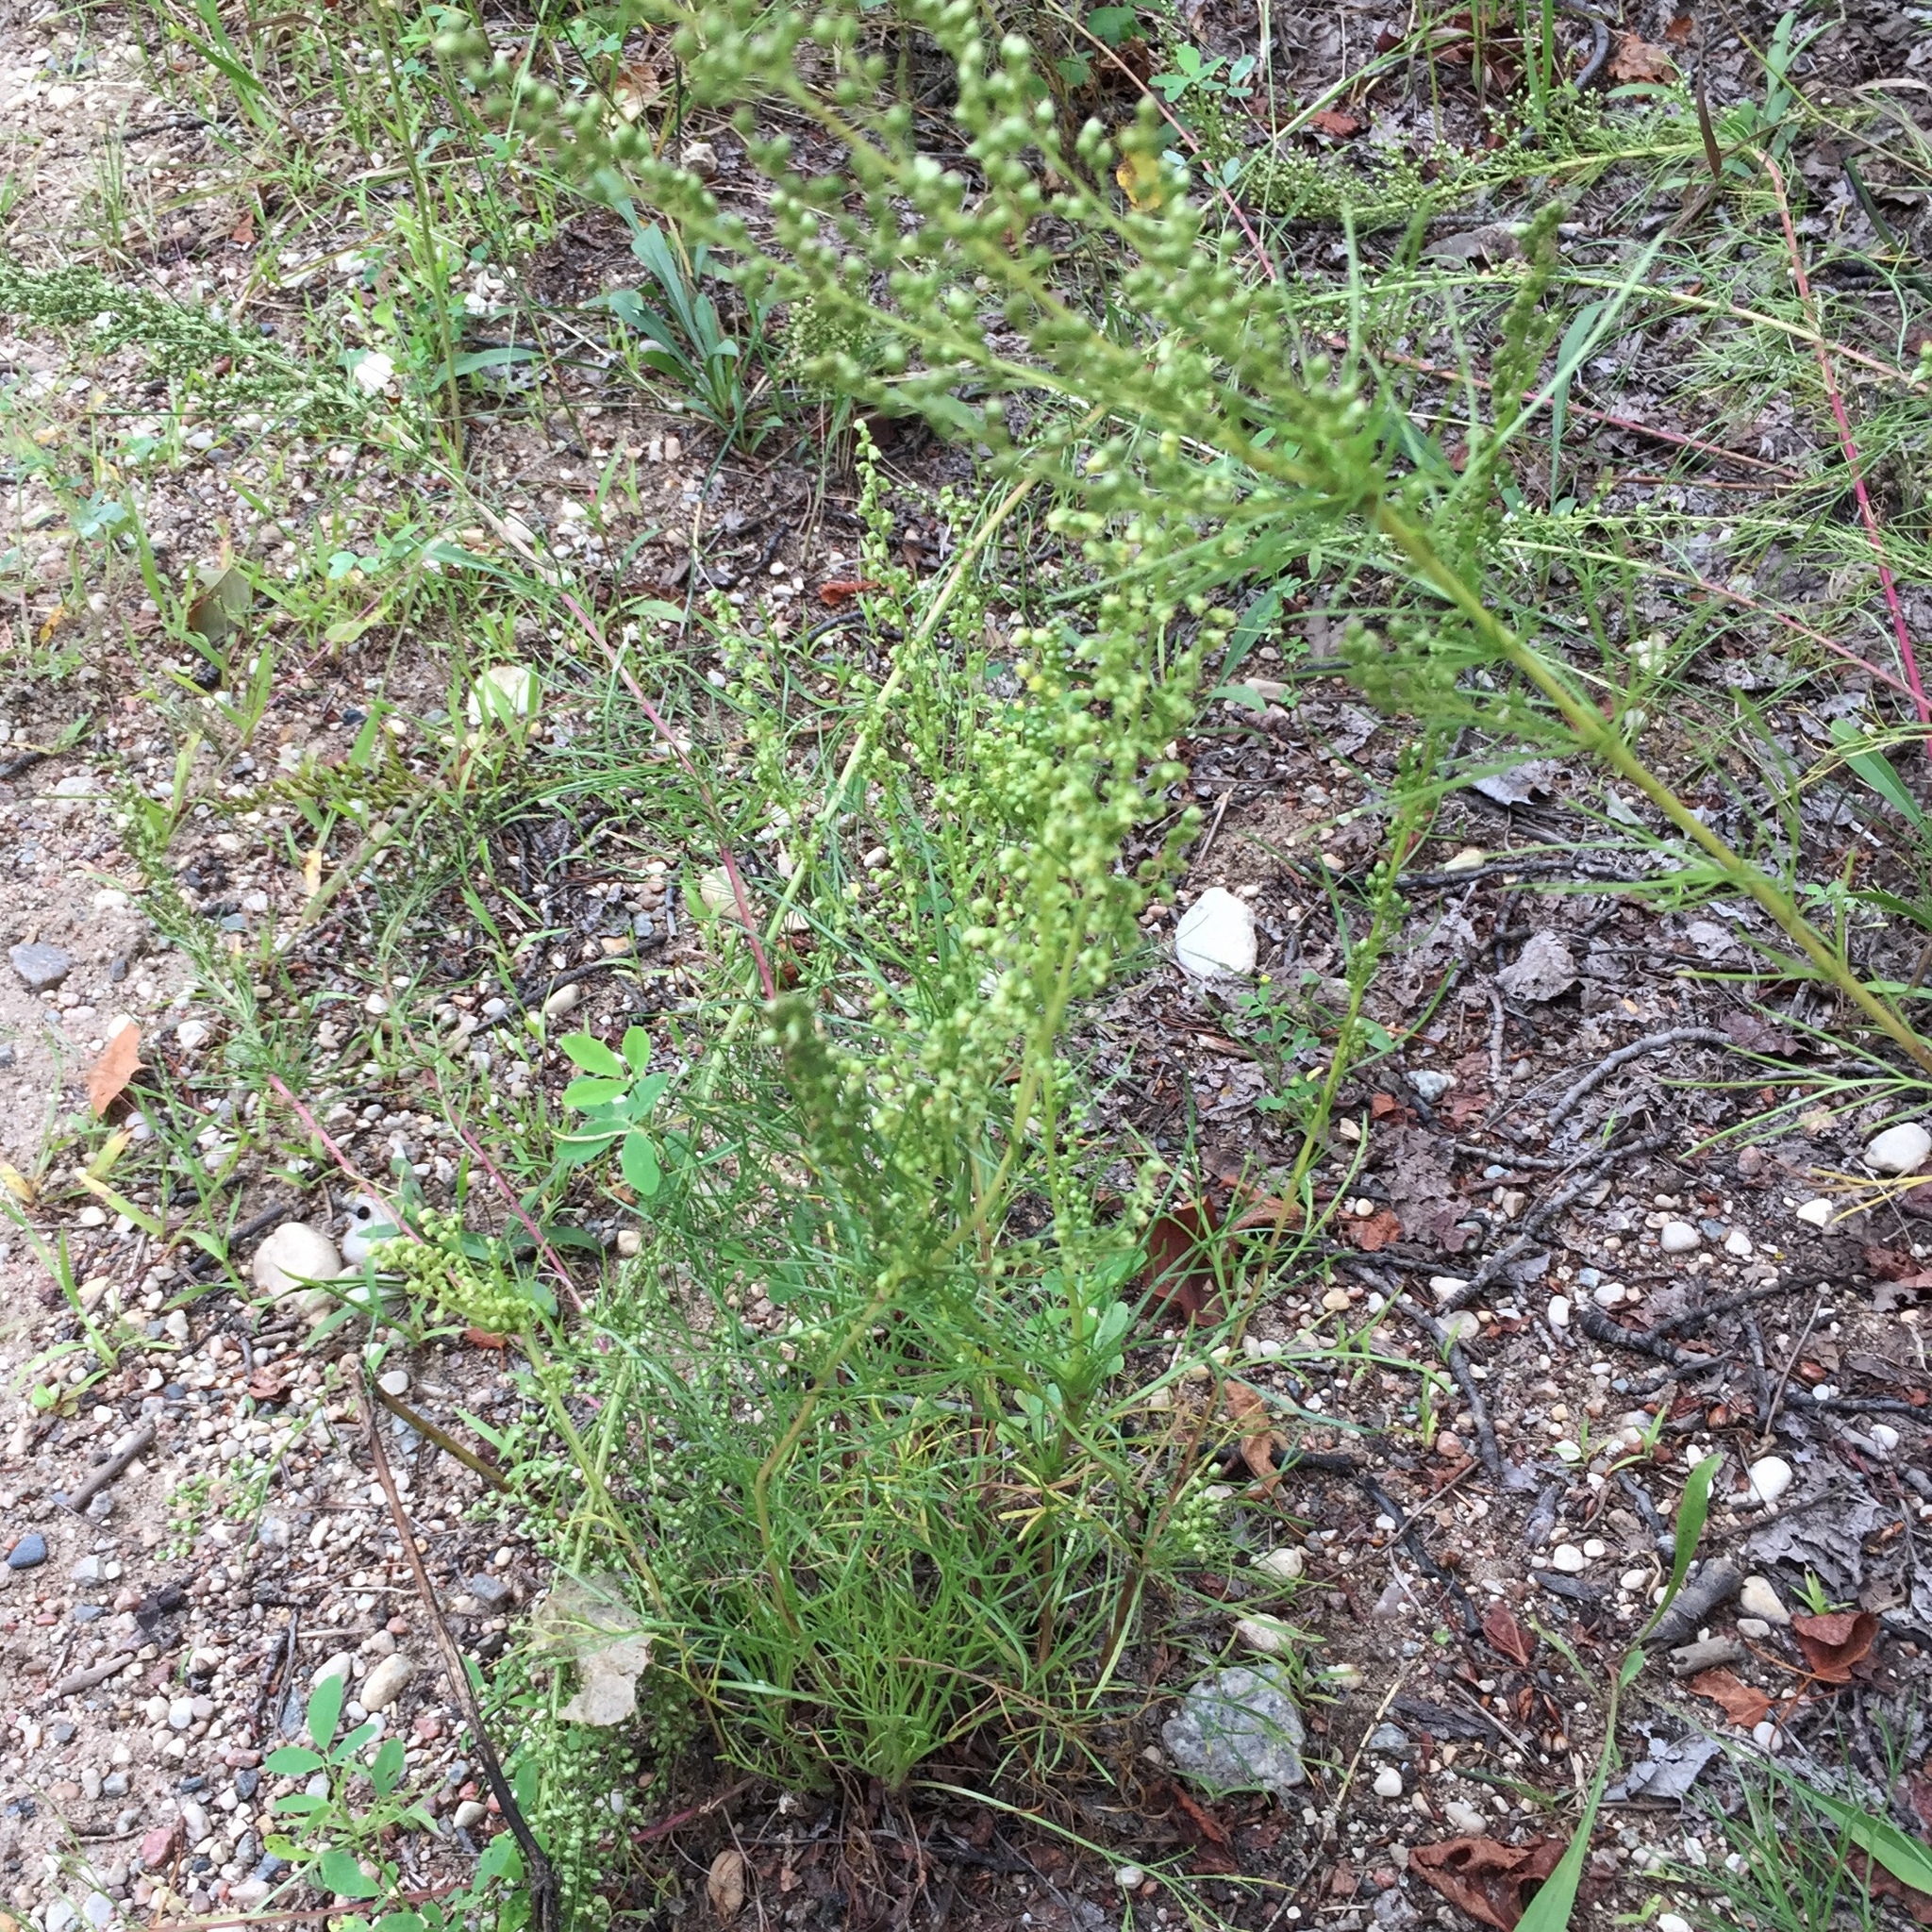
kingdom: Plantae
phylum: Tracheophyta
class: Magnoliopsida
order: Asterales
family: Asteraceae
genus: Artemisia
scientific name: Artemisia campestris
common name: Field wormwood
